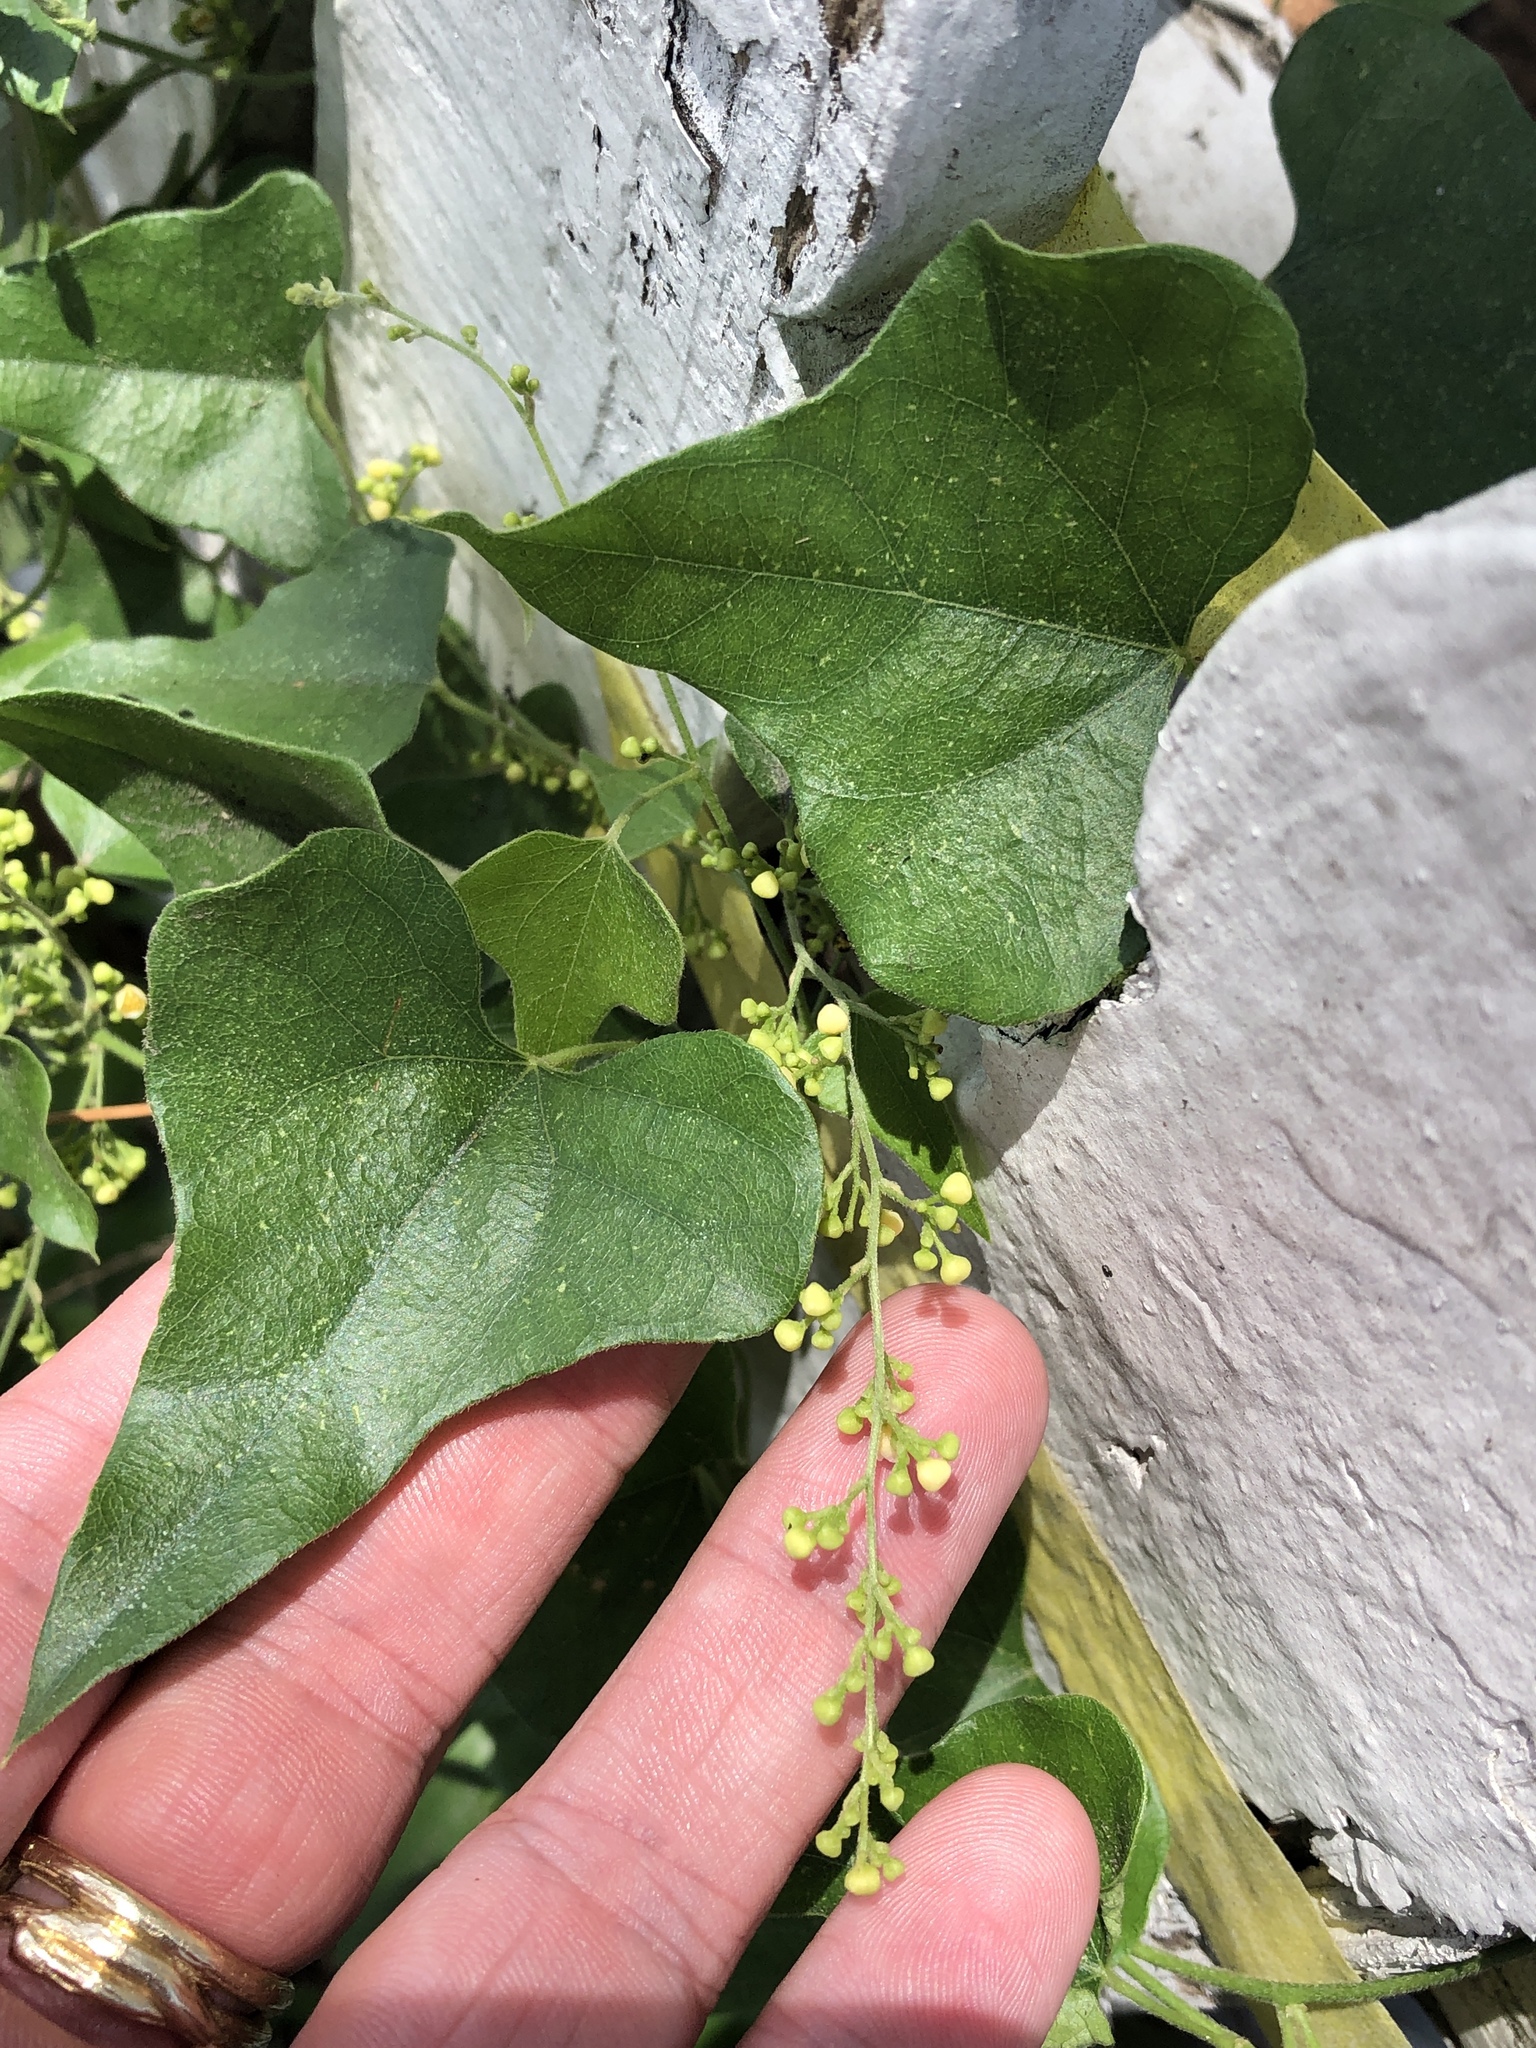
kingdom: Plantae
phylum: Tracheophyta
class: Magnoliopsida
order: Ranunculales
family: Menispermaceae
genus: Cocculus
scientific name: Cocculus carolinus
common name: Carolina moonseed
